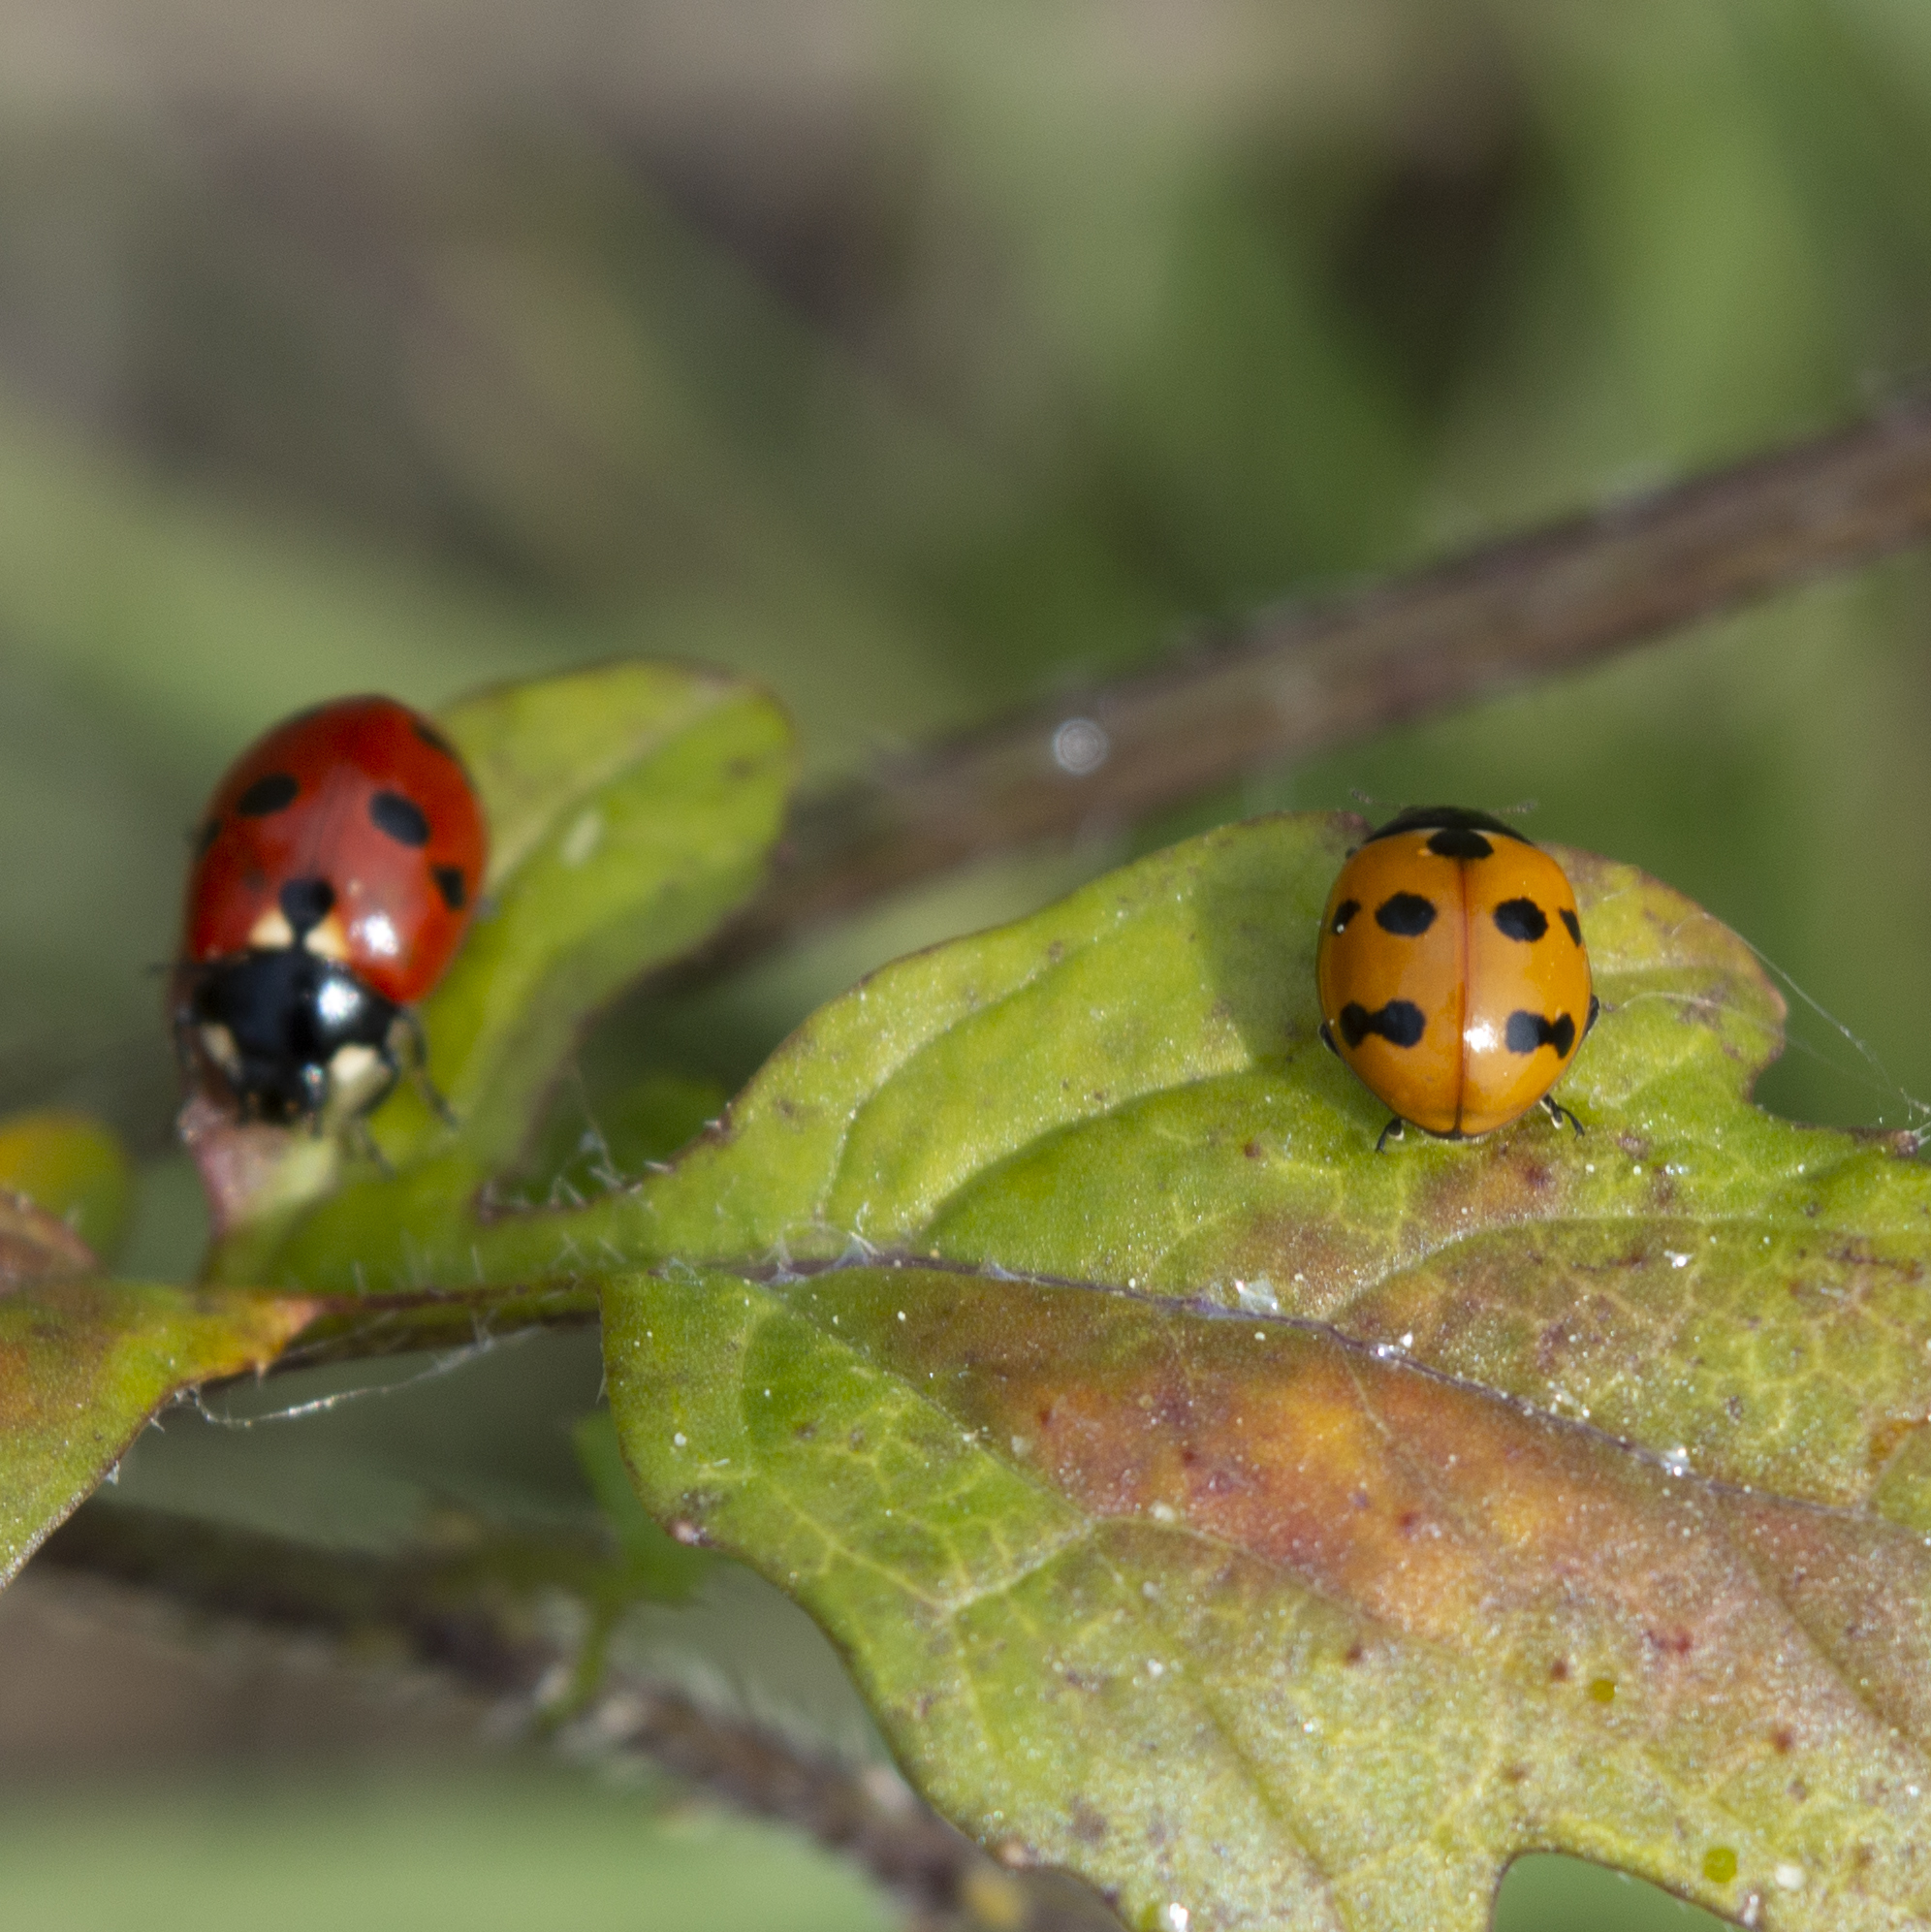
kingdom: Animalia
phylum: Arthropoda
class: Insecta
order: Coleoptera
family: Coccinellidae
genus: Coccinella
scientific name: Coccinella undecimpunctata
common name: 11-spot ladybird
